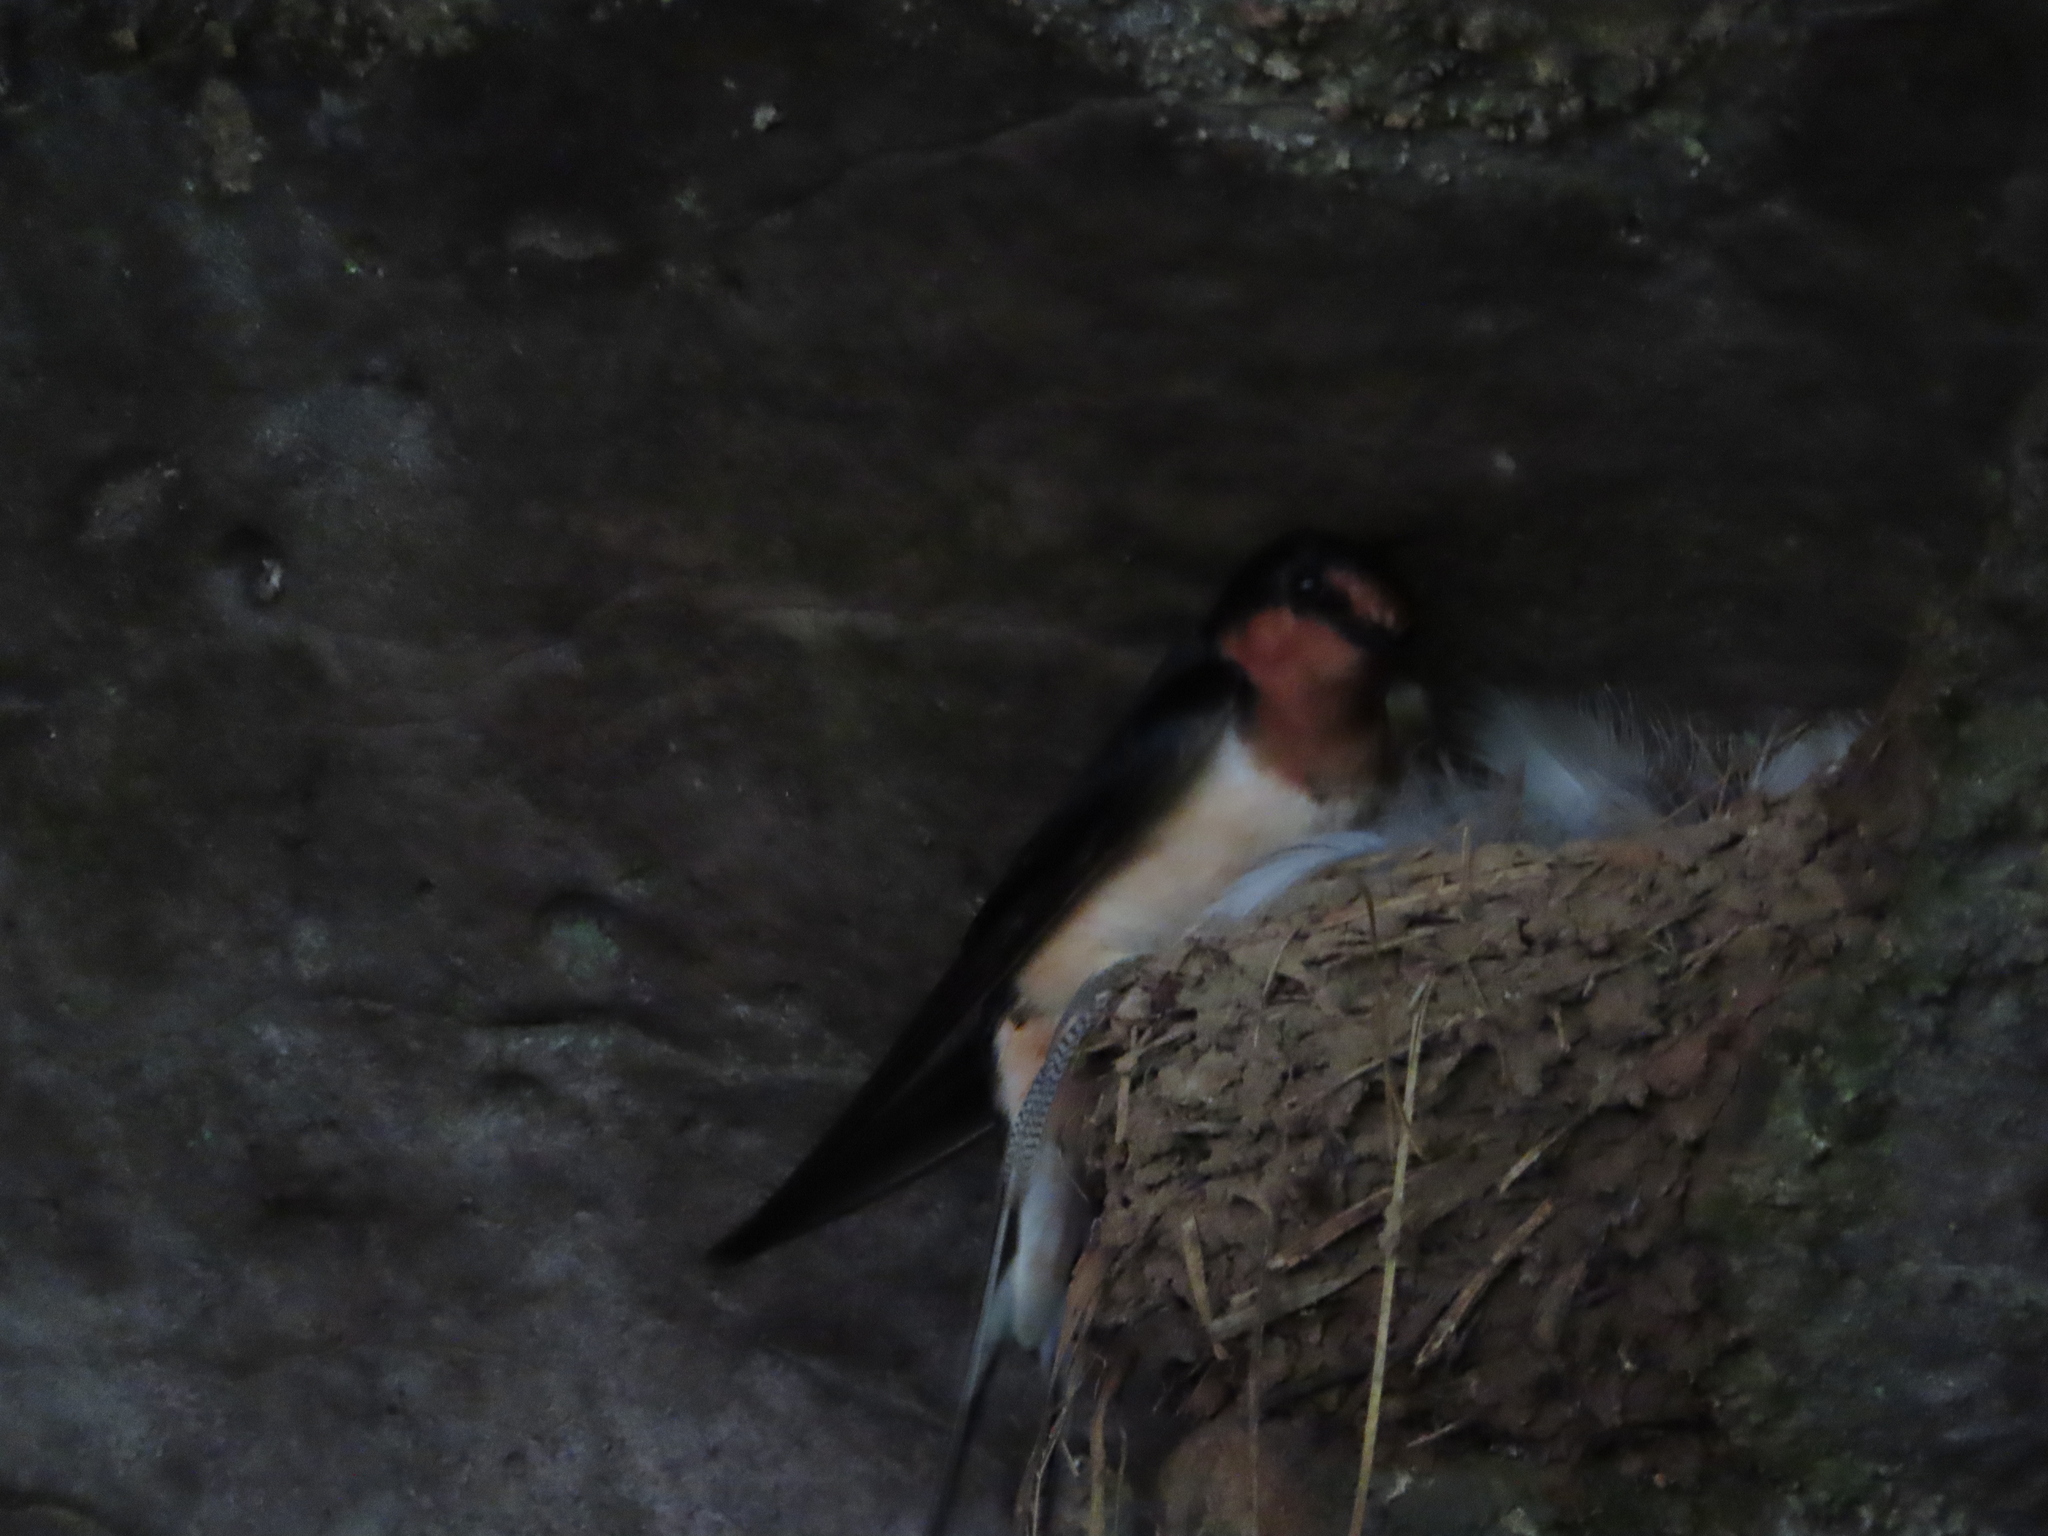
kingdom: Animalia
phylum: Chordata
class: Aves
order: Passeriformes
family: Hirundinidae
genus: Hirundo
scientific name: Hirundo rustica
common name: Barn swallow
